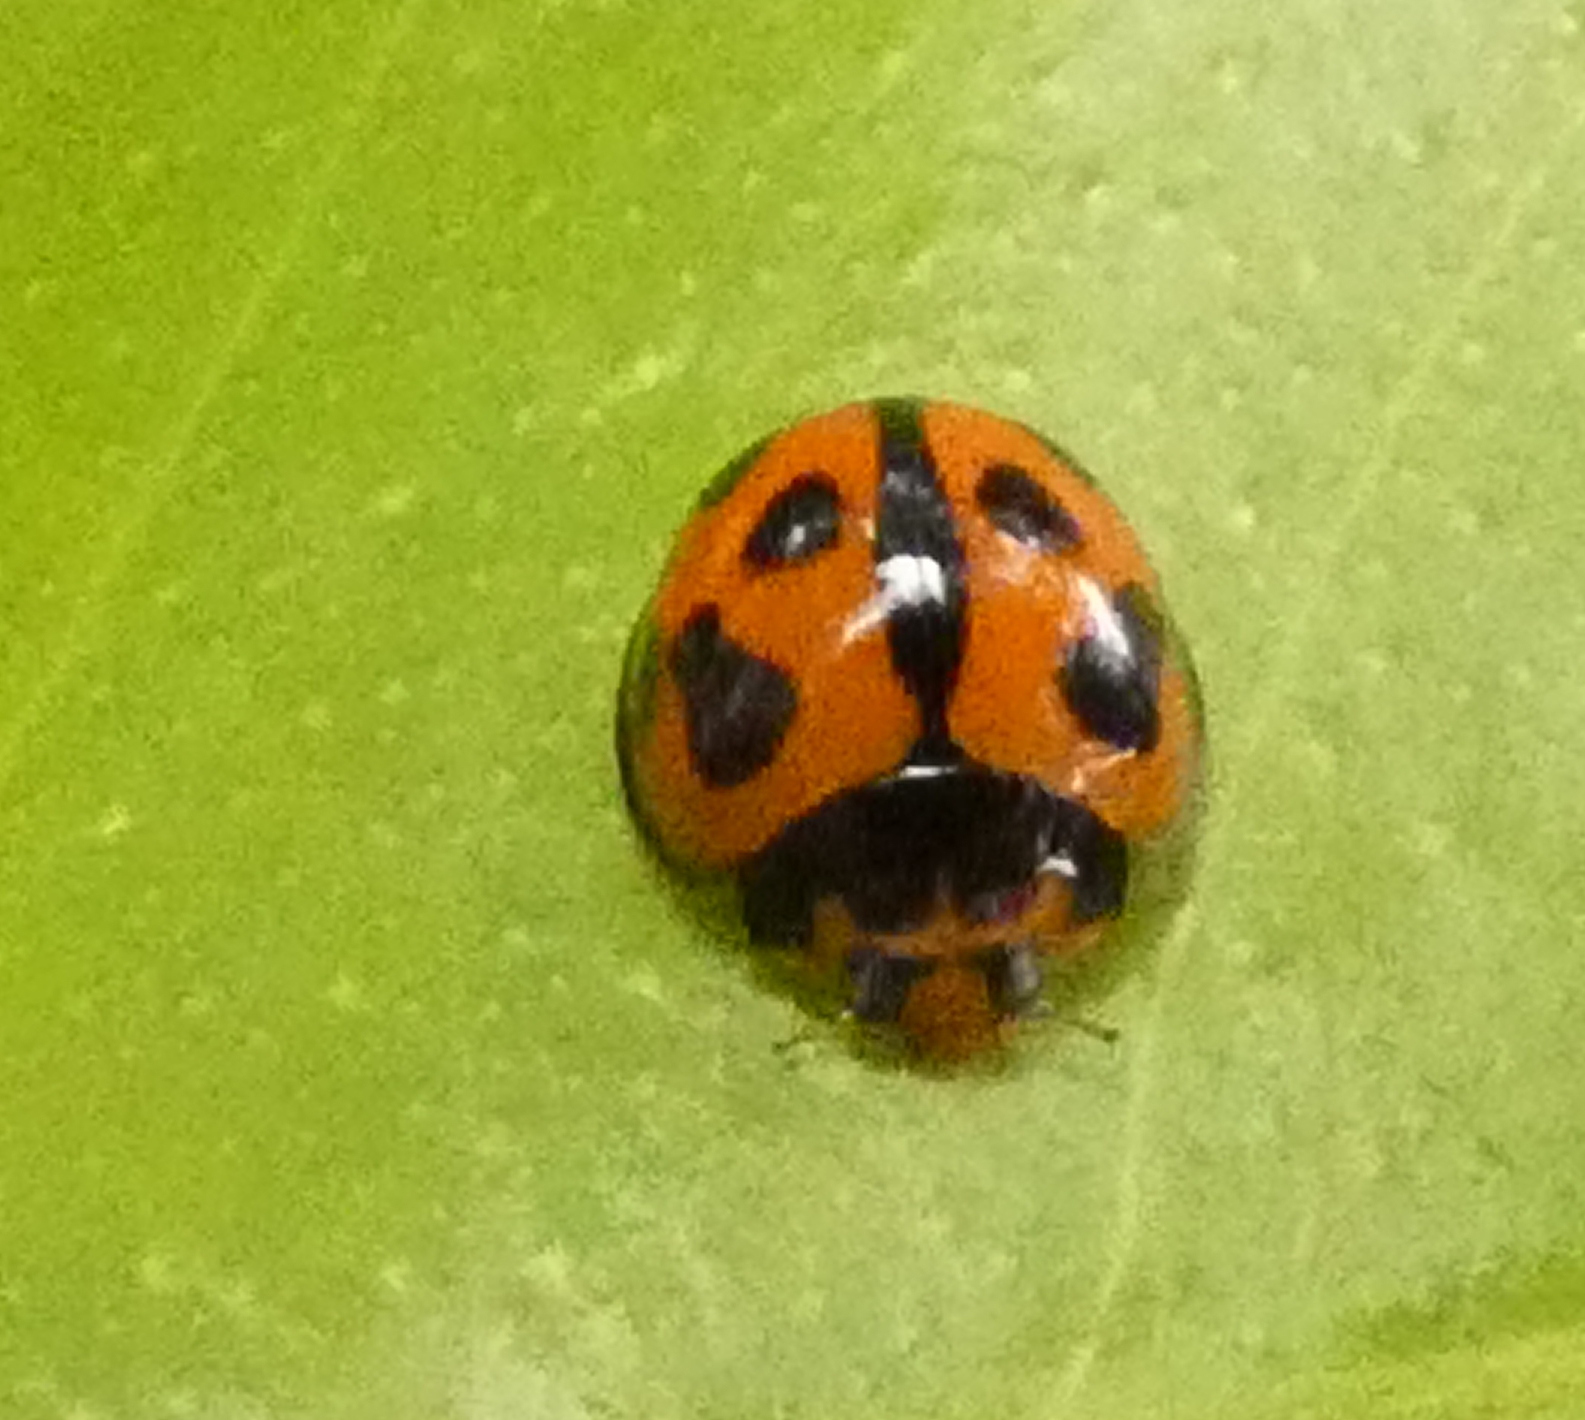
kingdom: Animalia
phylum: Arthropoda
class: Insecta
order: Coleoptera
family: Coccinellidae
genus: Coelophora
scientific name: Coelophora inaequalis
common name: Common australian lady beetle
